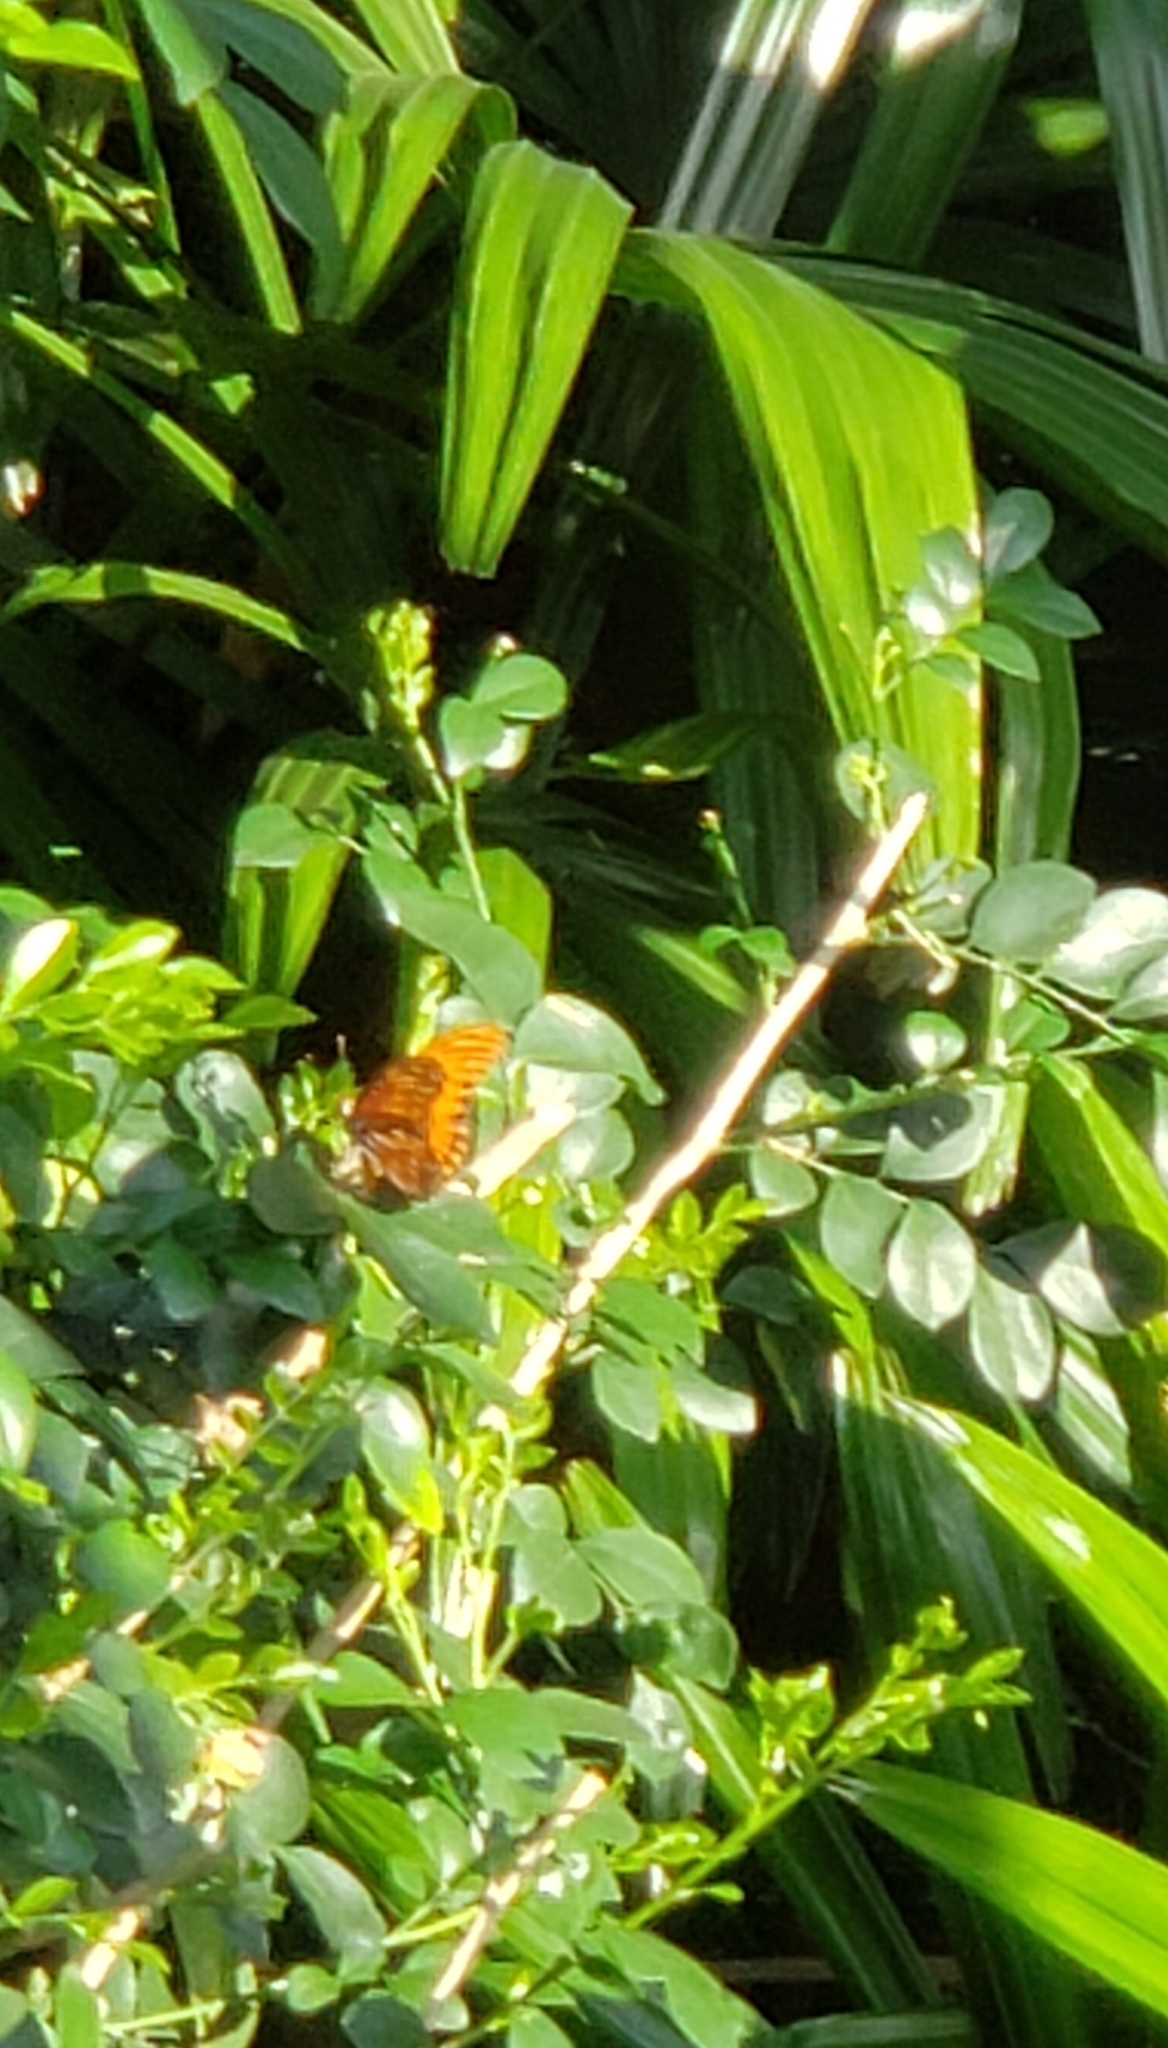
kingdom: Animalia
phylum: Arthropoda
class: Insecta
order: Lepidoptera
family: Nymphalidae
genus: Dione
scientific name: Dione vanillae
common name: Gulf fritillary
